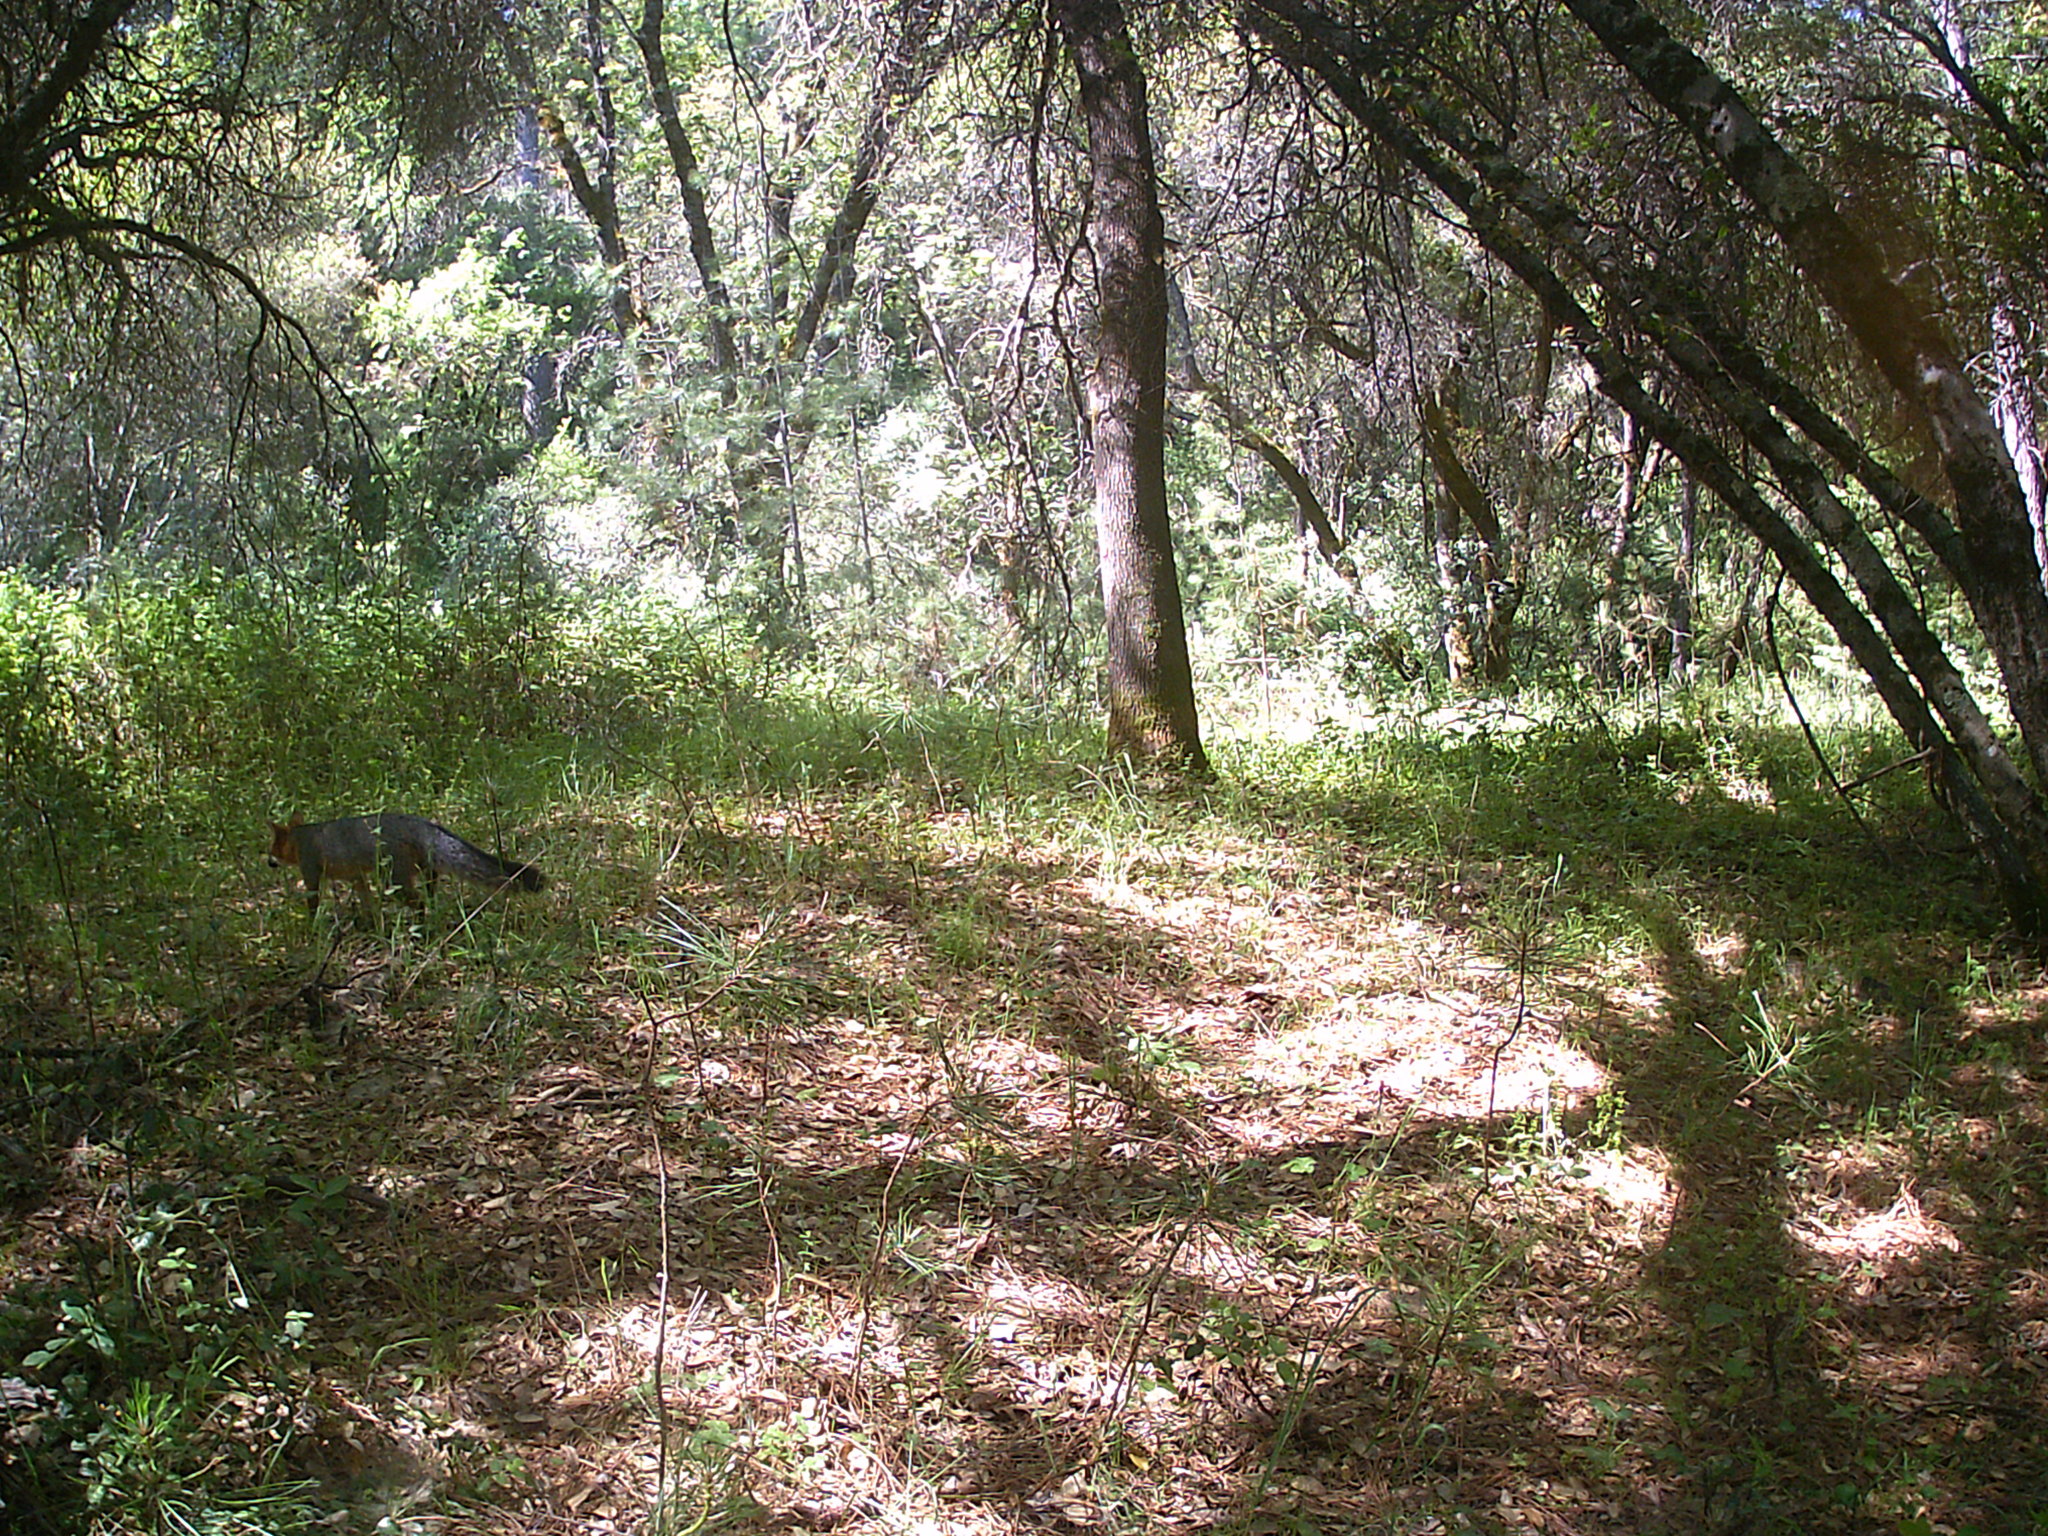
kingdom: Animalia
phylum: Chordata
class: Mammalia
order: Carnivora
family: Canidae
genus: Urocyon
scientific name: Urocyon cinereoargenteus
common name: Gray fox
